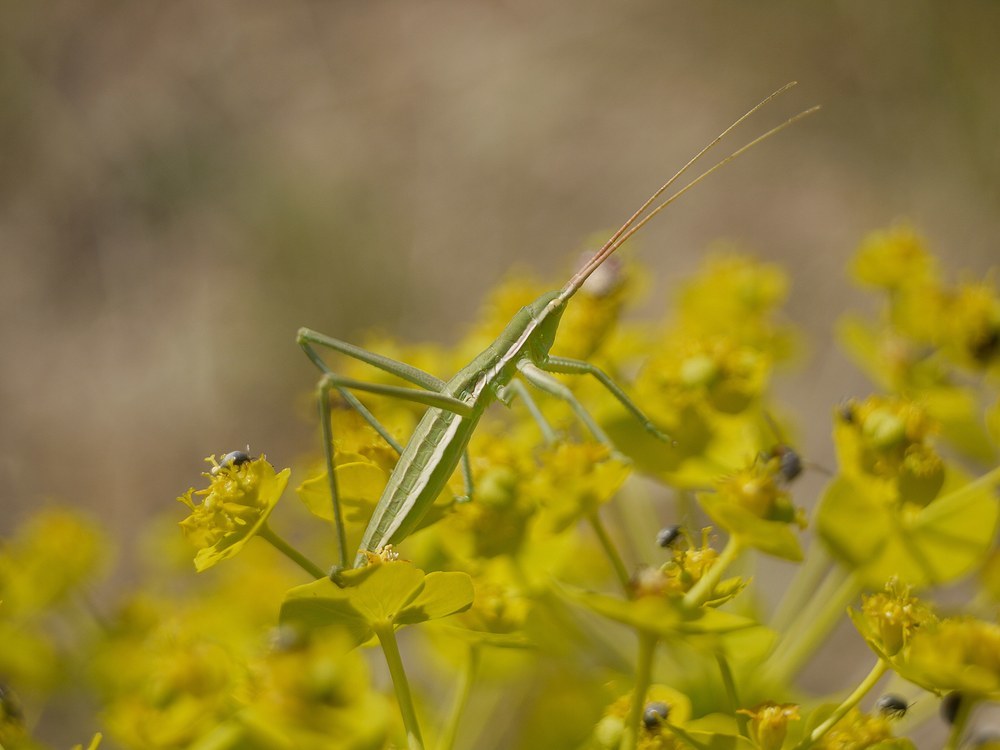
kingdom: Animalia
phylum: Arthropoda
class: Insecta
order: Orthoptera
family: Tettigoniidae
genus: Saga
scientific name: Saga pedo
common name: Common predatory bush-cricket
